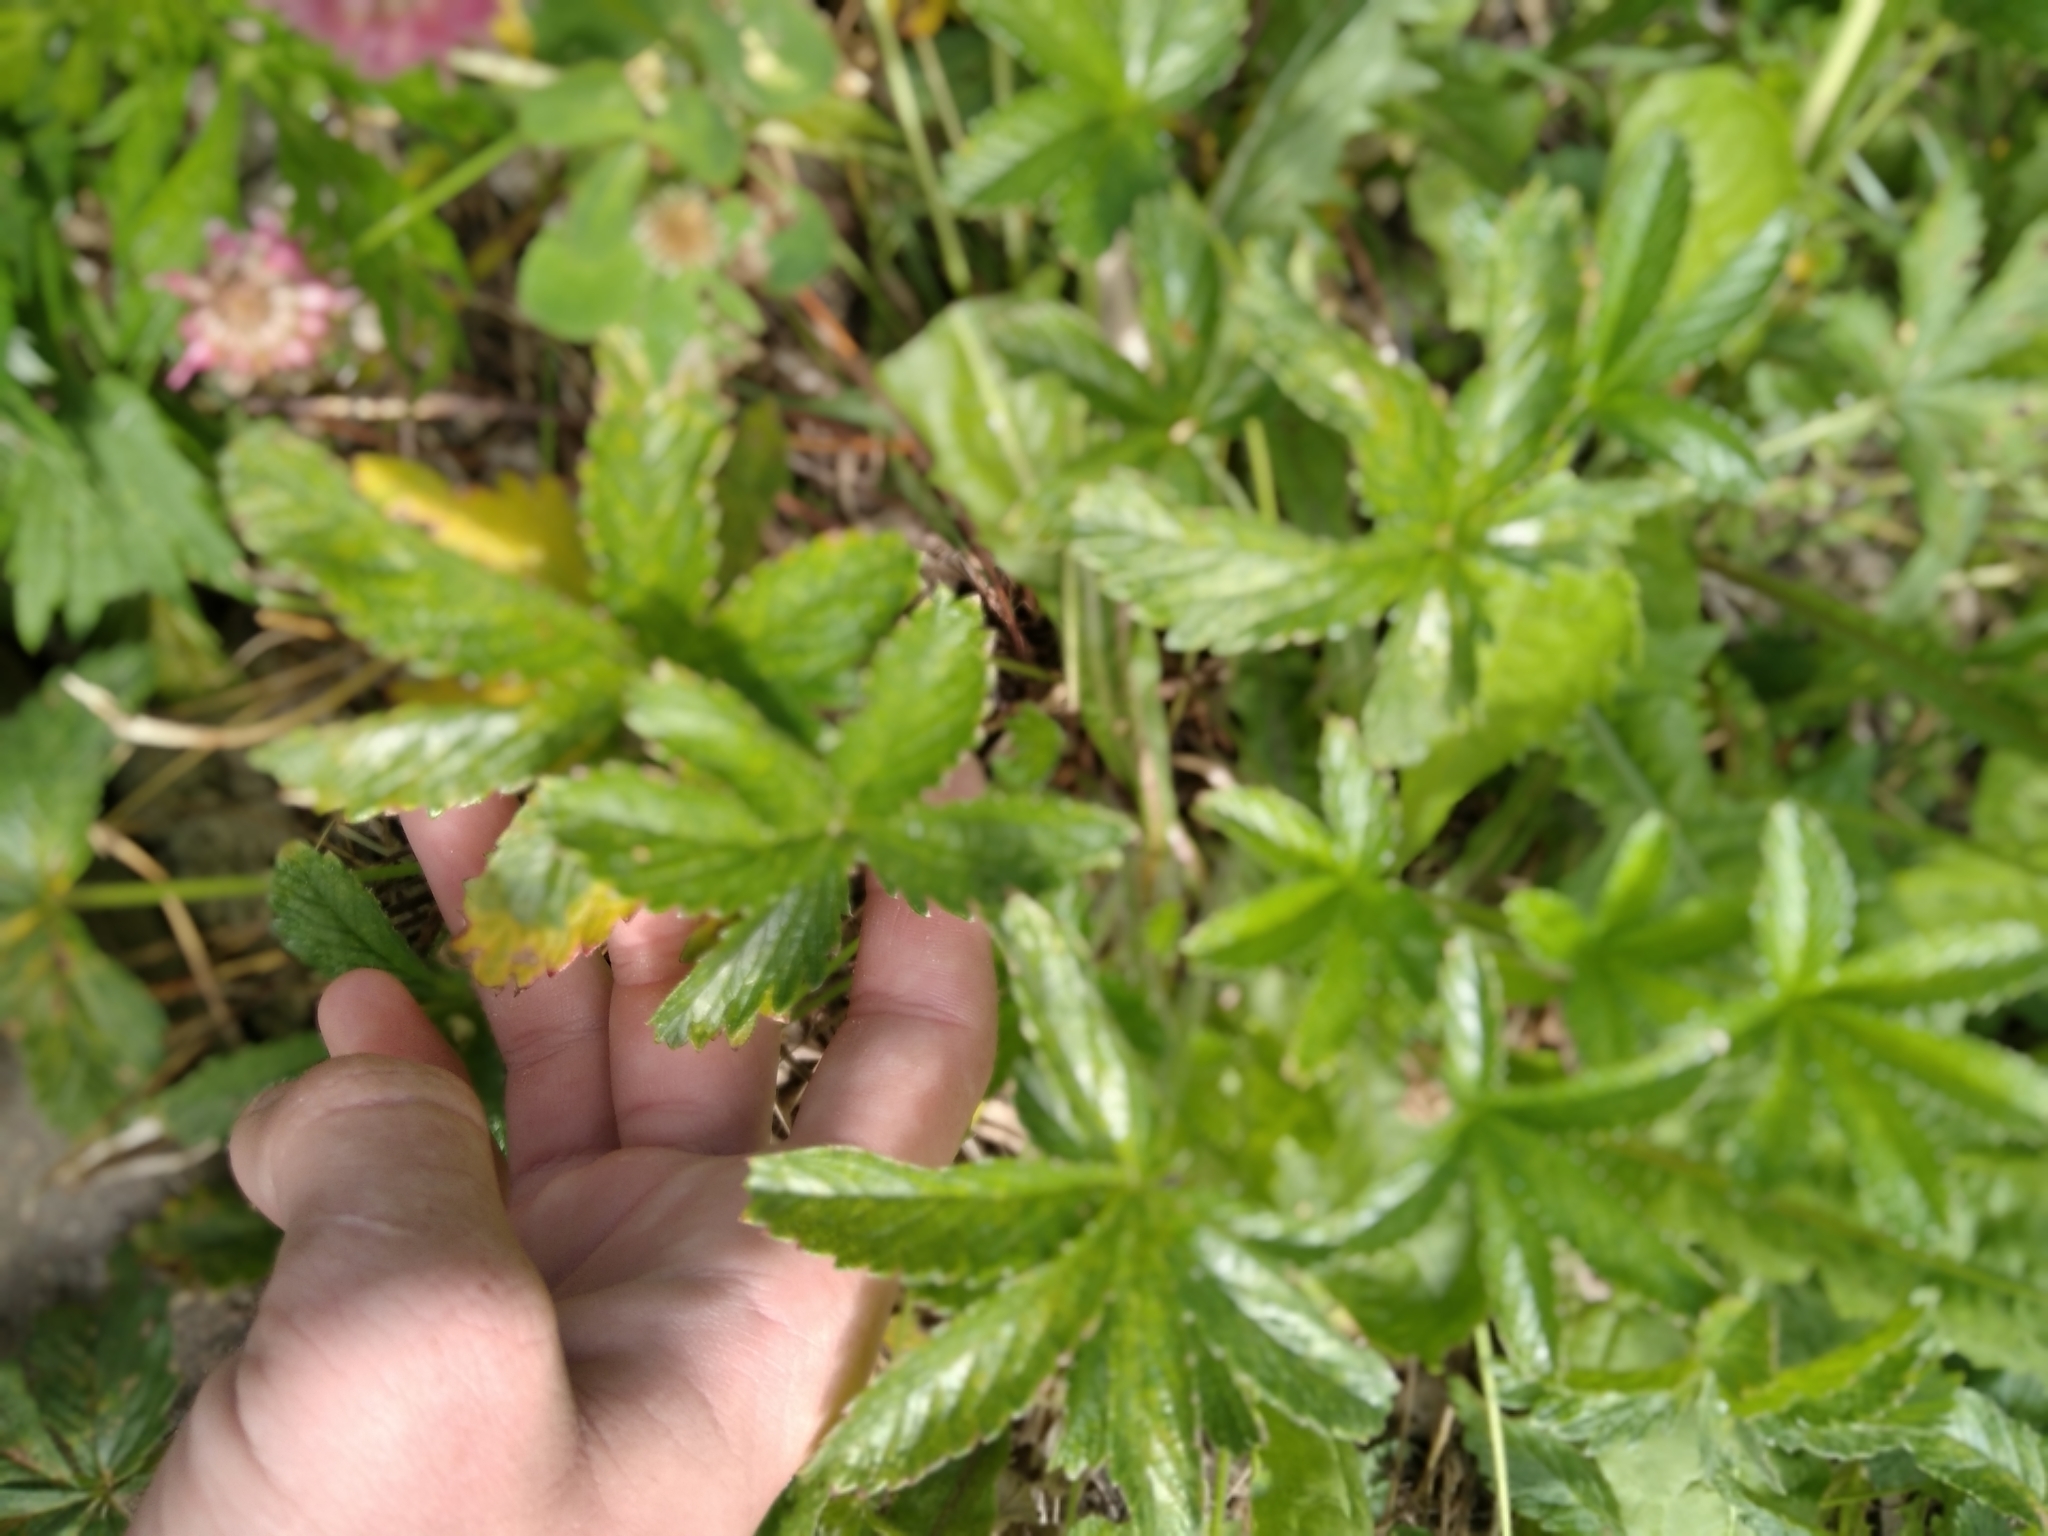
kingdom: Plantae
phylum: Tracheophyta
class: Magnoliopsida
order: Rosales
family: Rosaceae
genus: Potentilla
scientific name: Potentilla thuringiaca
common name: European cinquefoil
